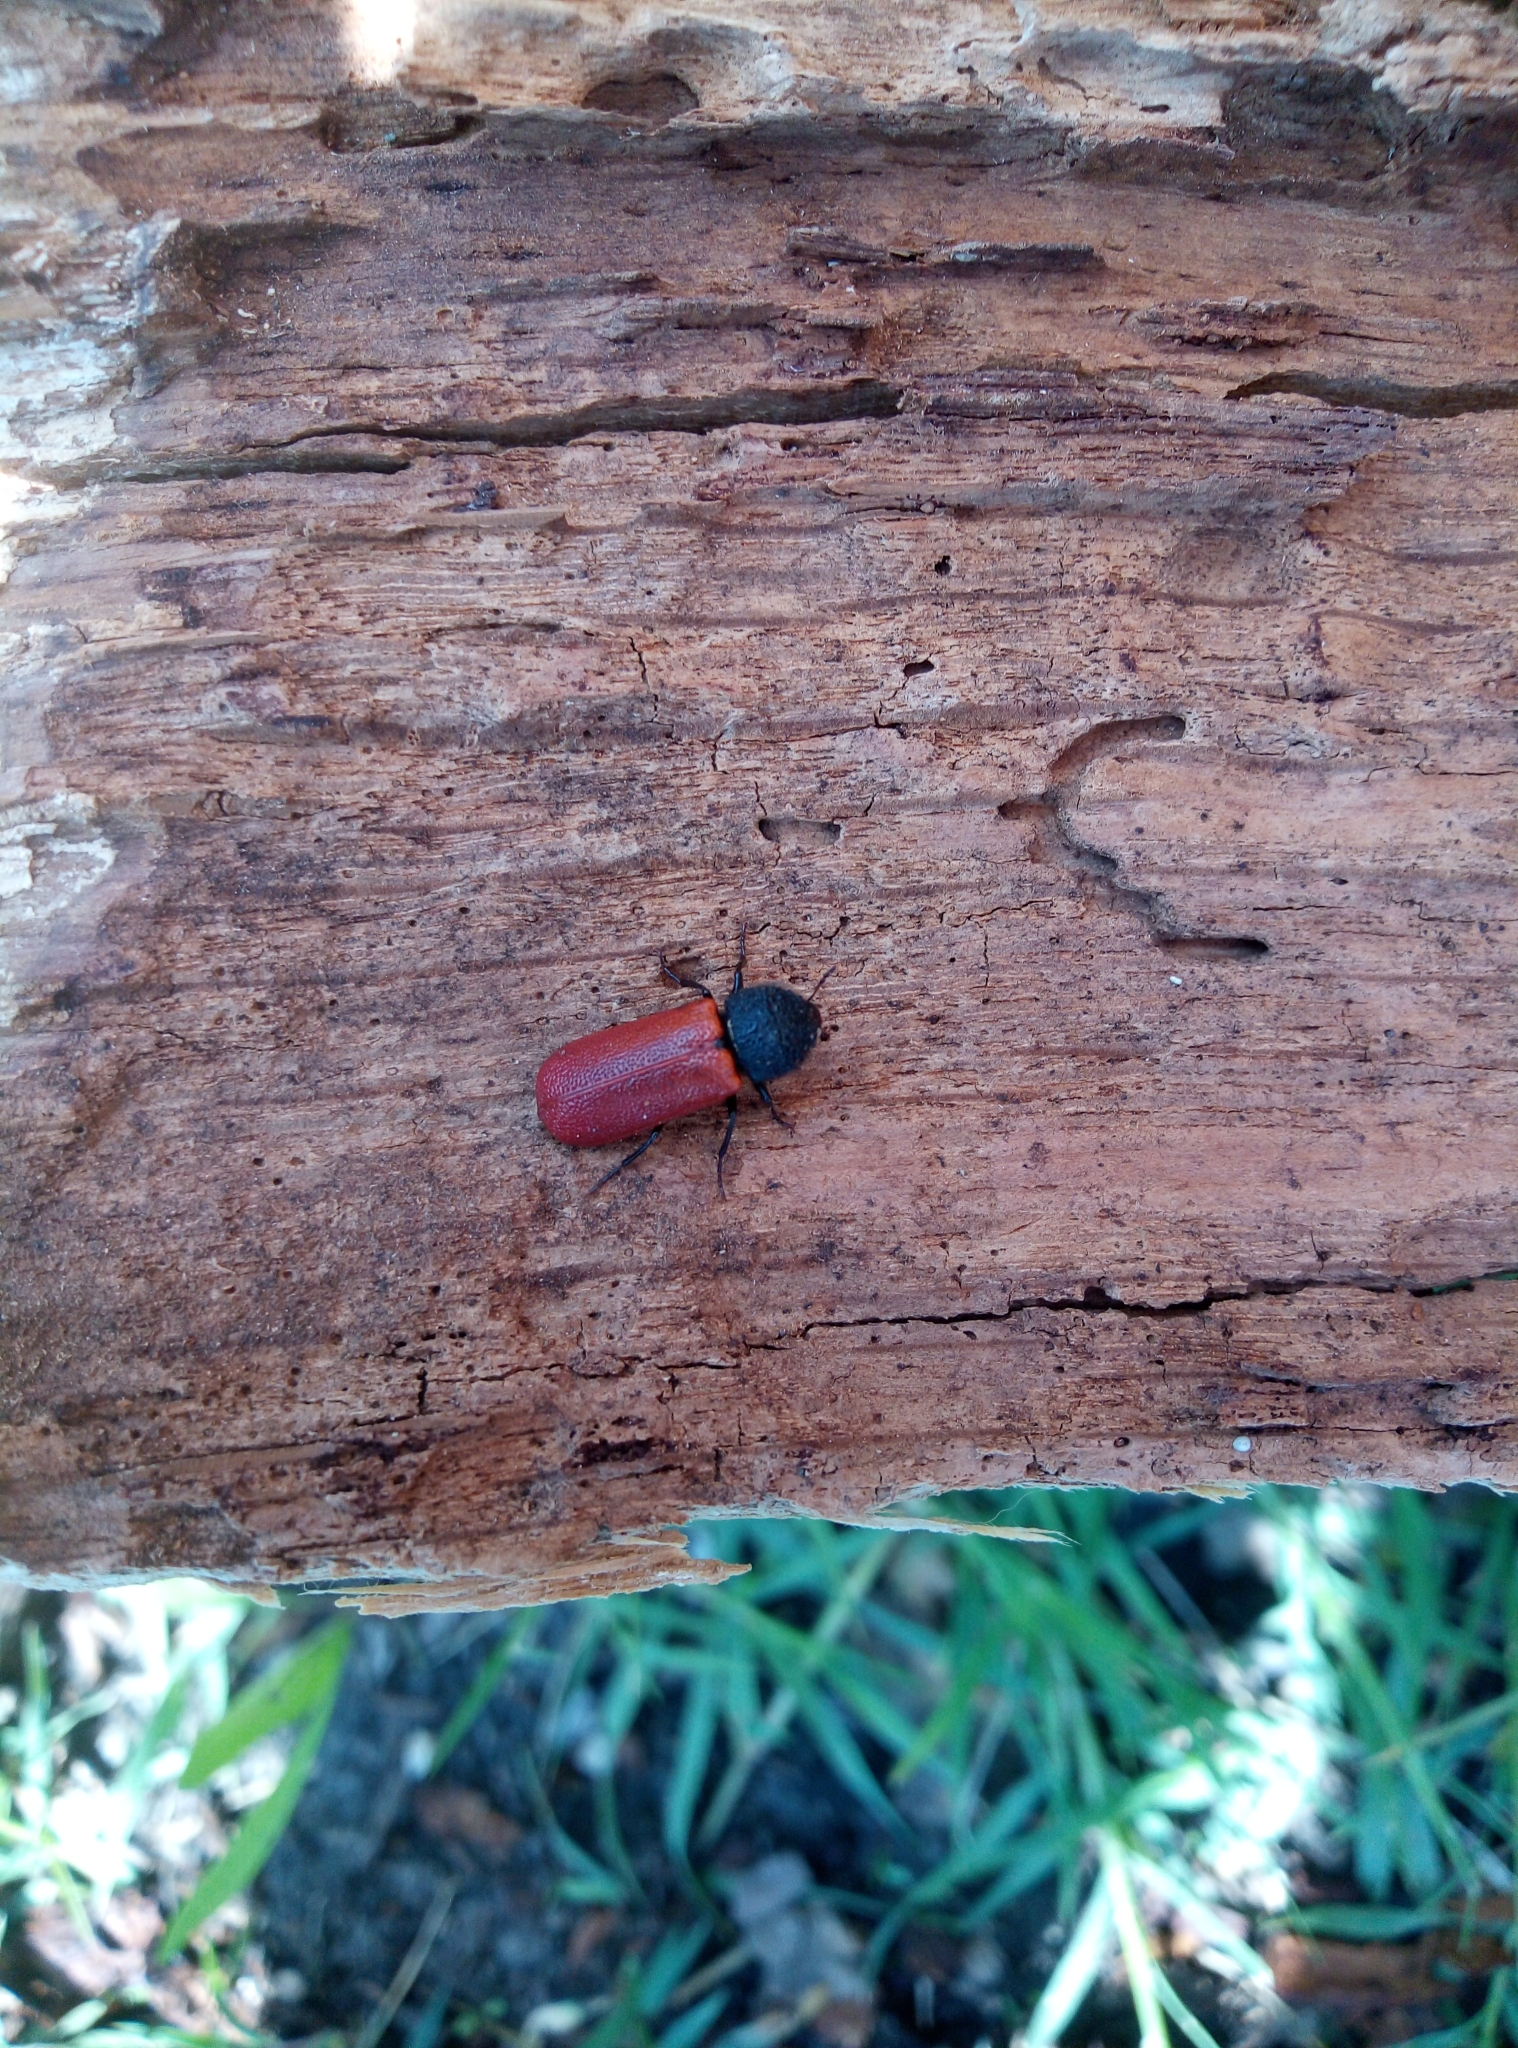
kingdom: Animalia
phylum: Arthropoda
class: Insecta
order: Coleoptera
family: Bostrichidae
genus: Bostrichus
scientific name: Bostrichus capucinus
